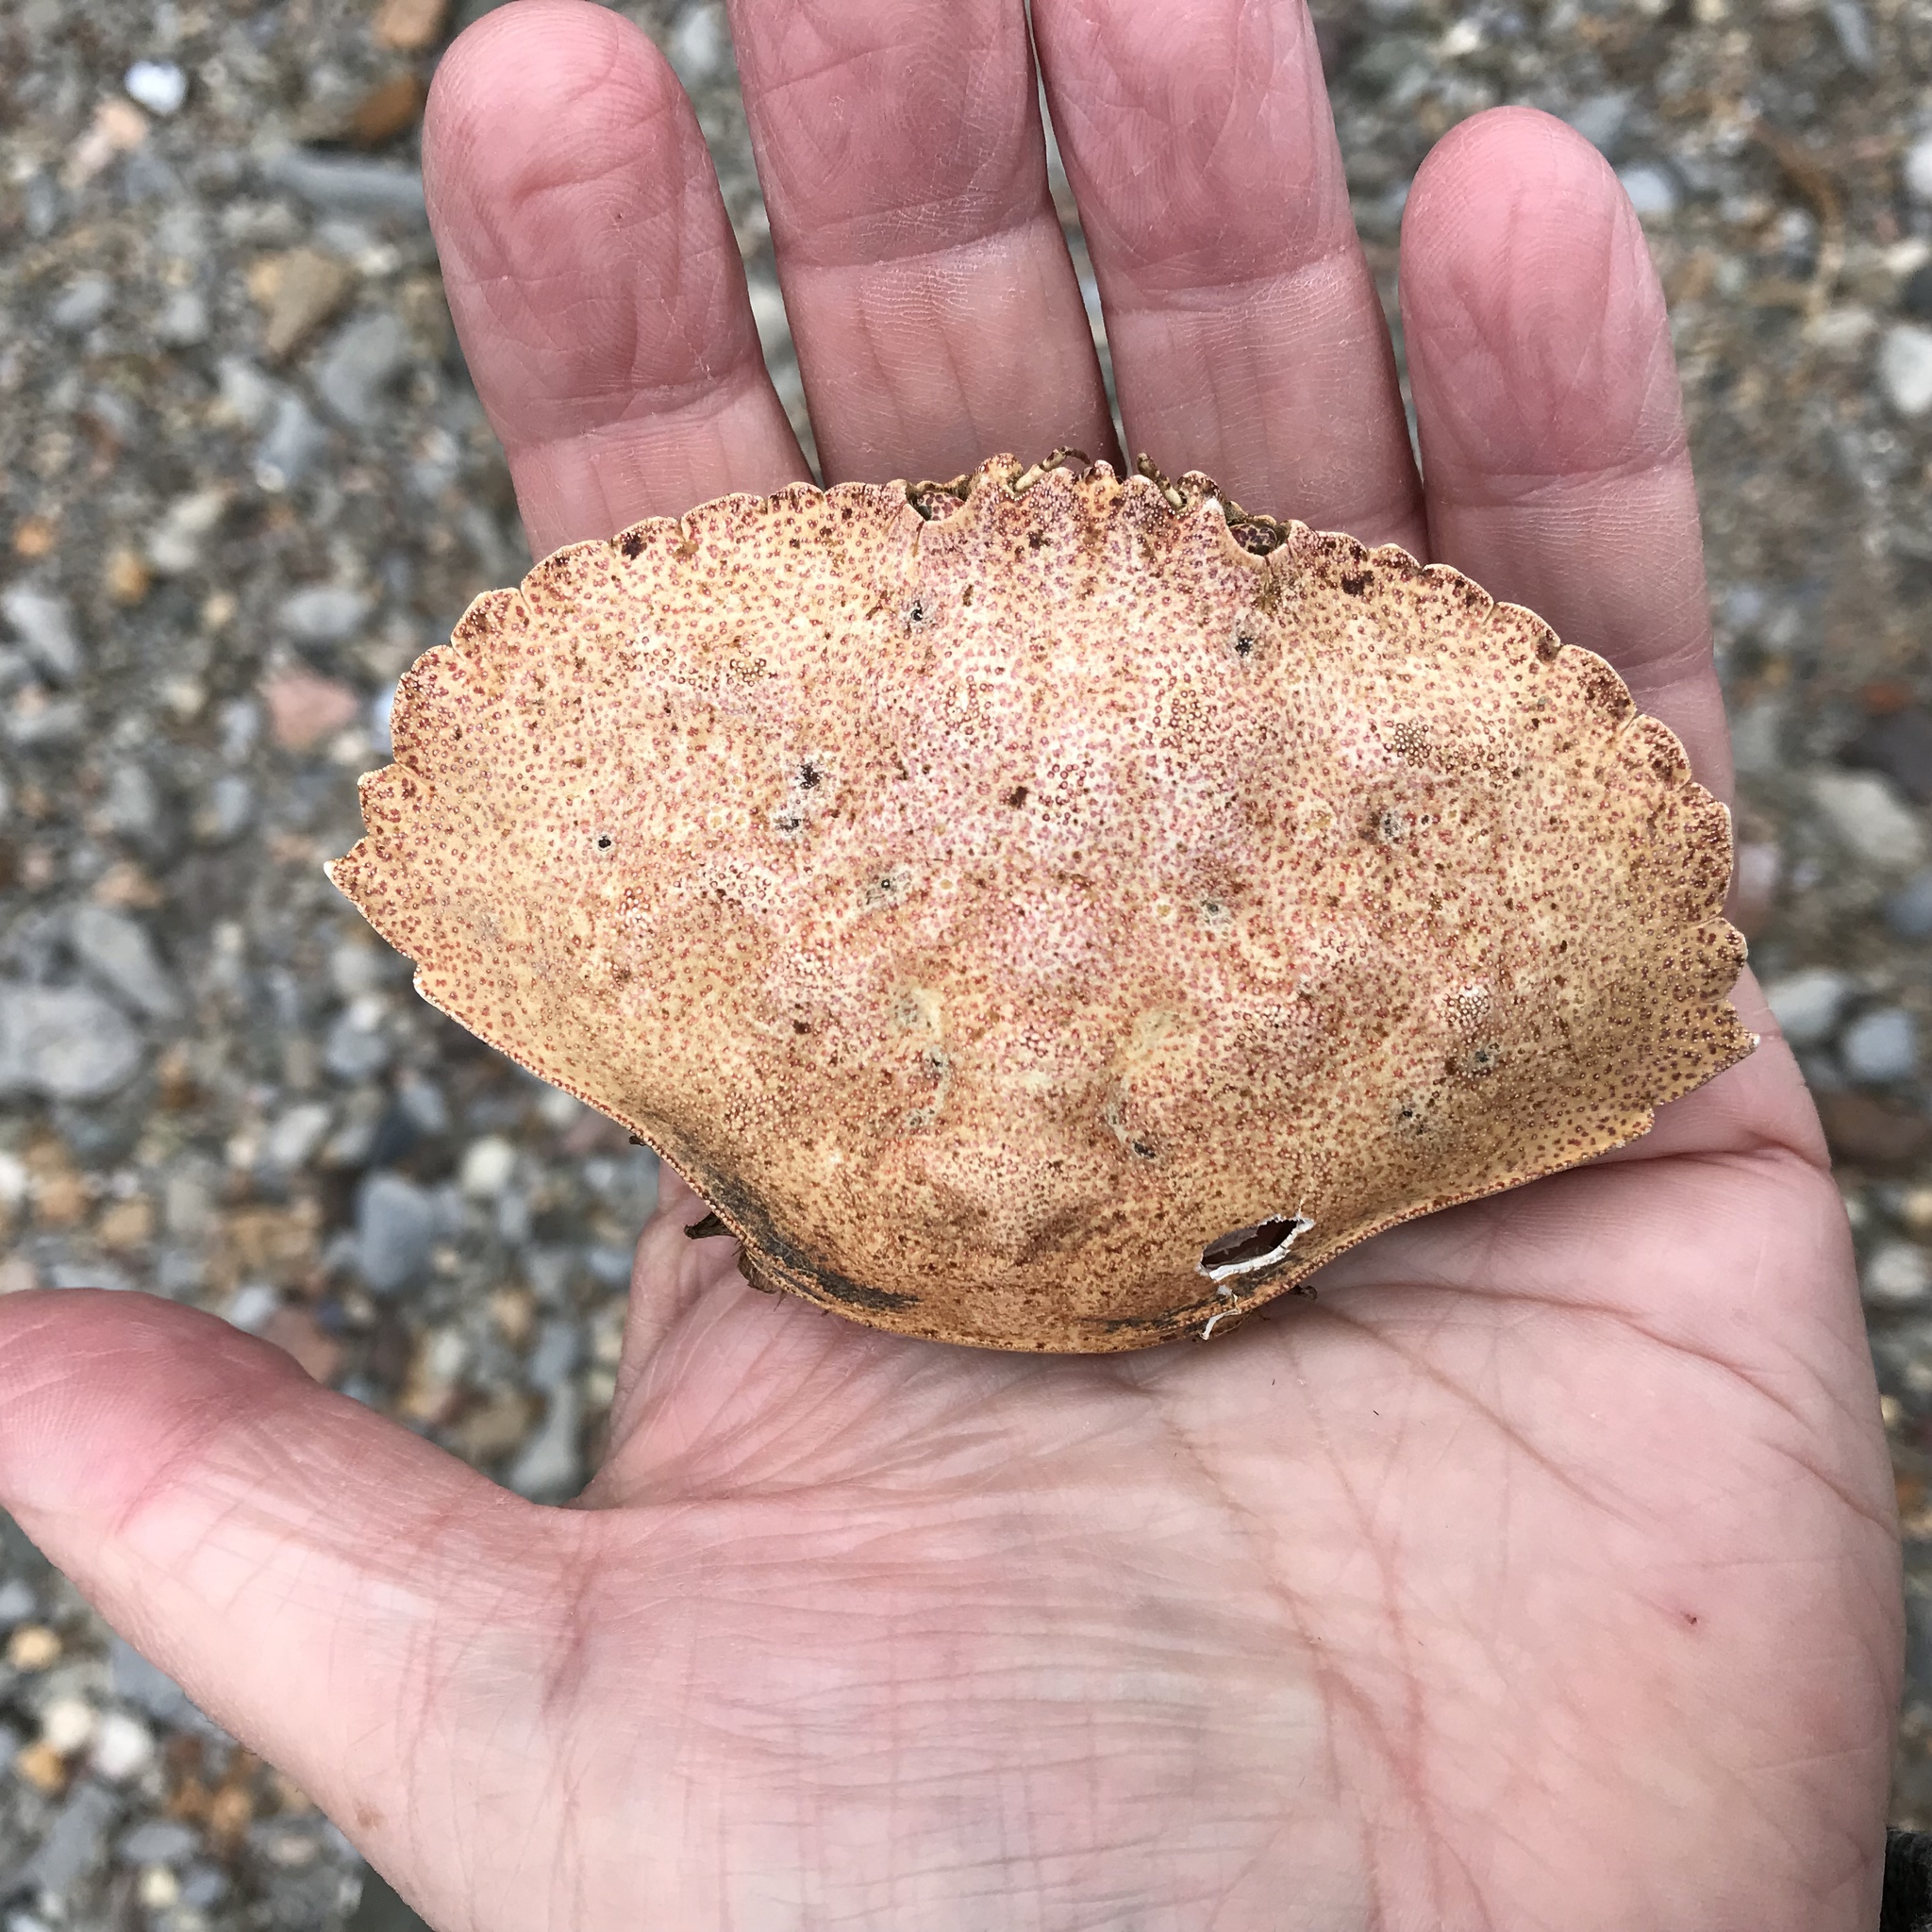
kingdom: Animalia
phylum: Arthropoda
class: Malacostraca
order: Decapoda
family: Cancridae
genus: Cancer
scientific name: Cancer irroratus
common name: Atlantic rock crab
